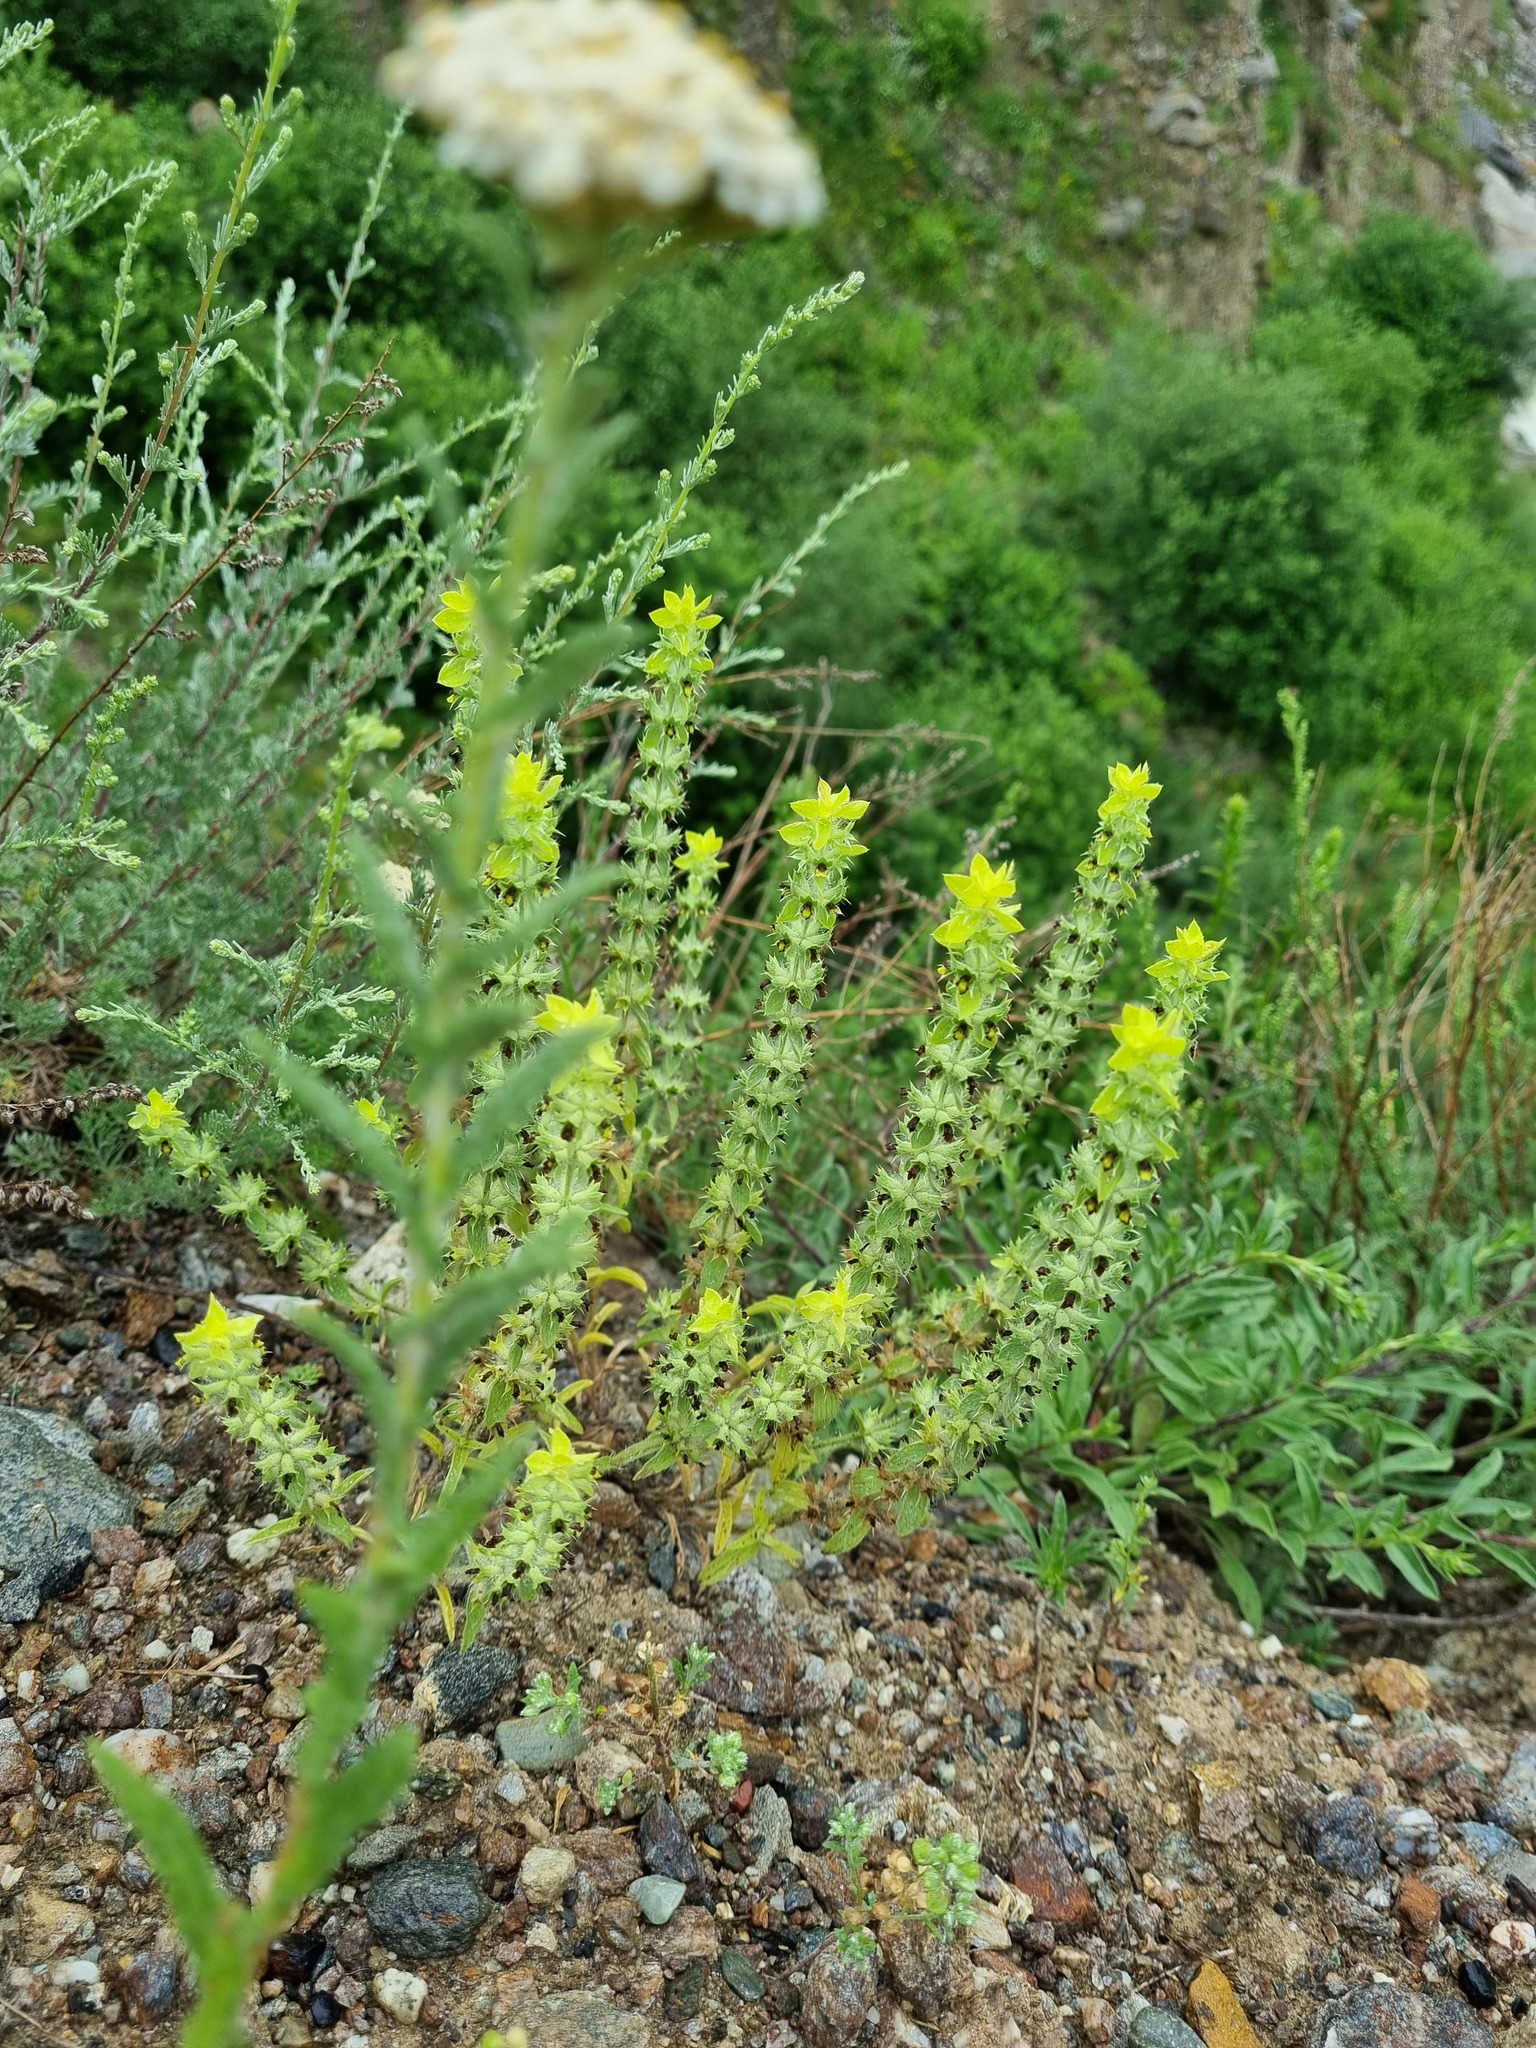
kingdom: Plantae
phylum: Tracheophyta
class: Magnoliopsida
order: Lamiales
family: Lamiaceae
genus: Sideritis
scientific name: Sideritis montana
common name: Mountain ironwort
